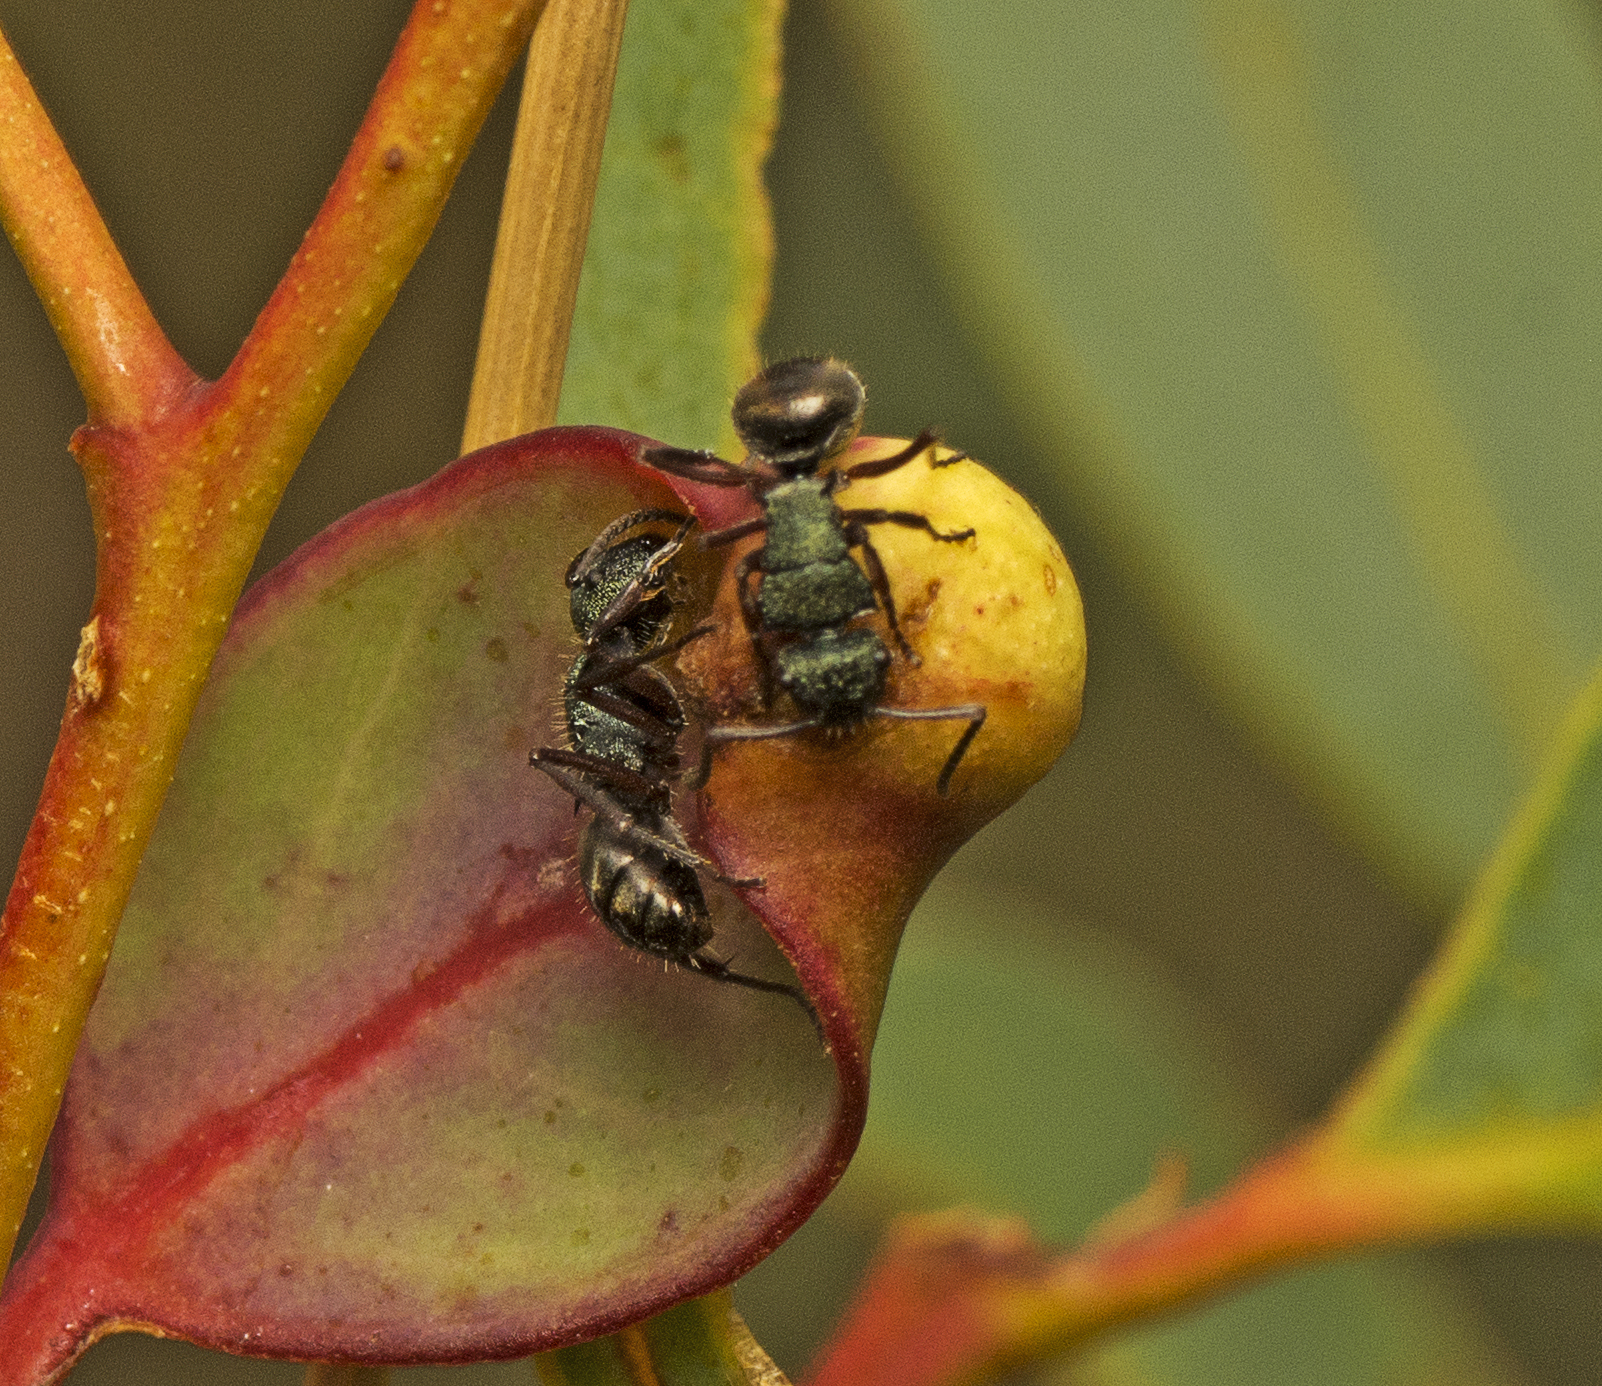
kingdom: Animalia
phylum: Arthropoda
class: Insecta
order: Hymenoptera
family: Formicidae
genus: Polyrhachis
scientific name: Polyrhachis hookeri
